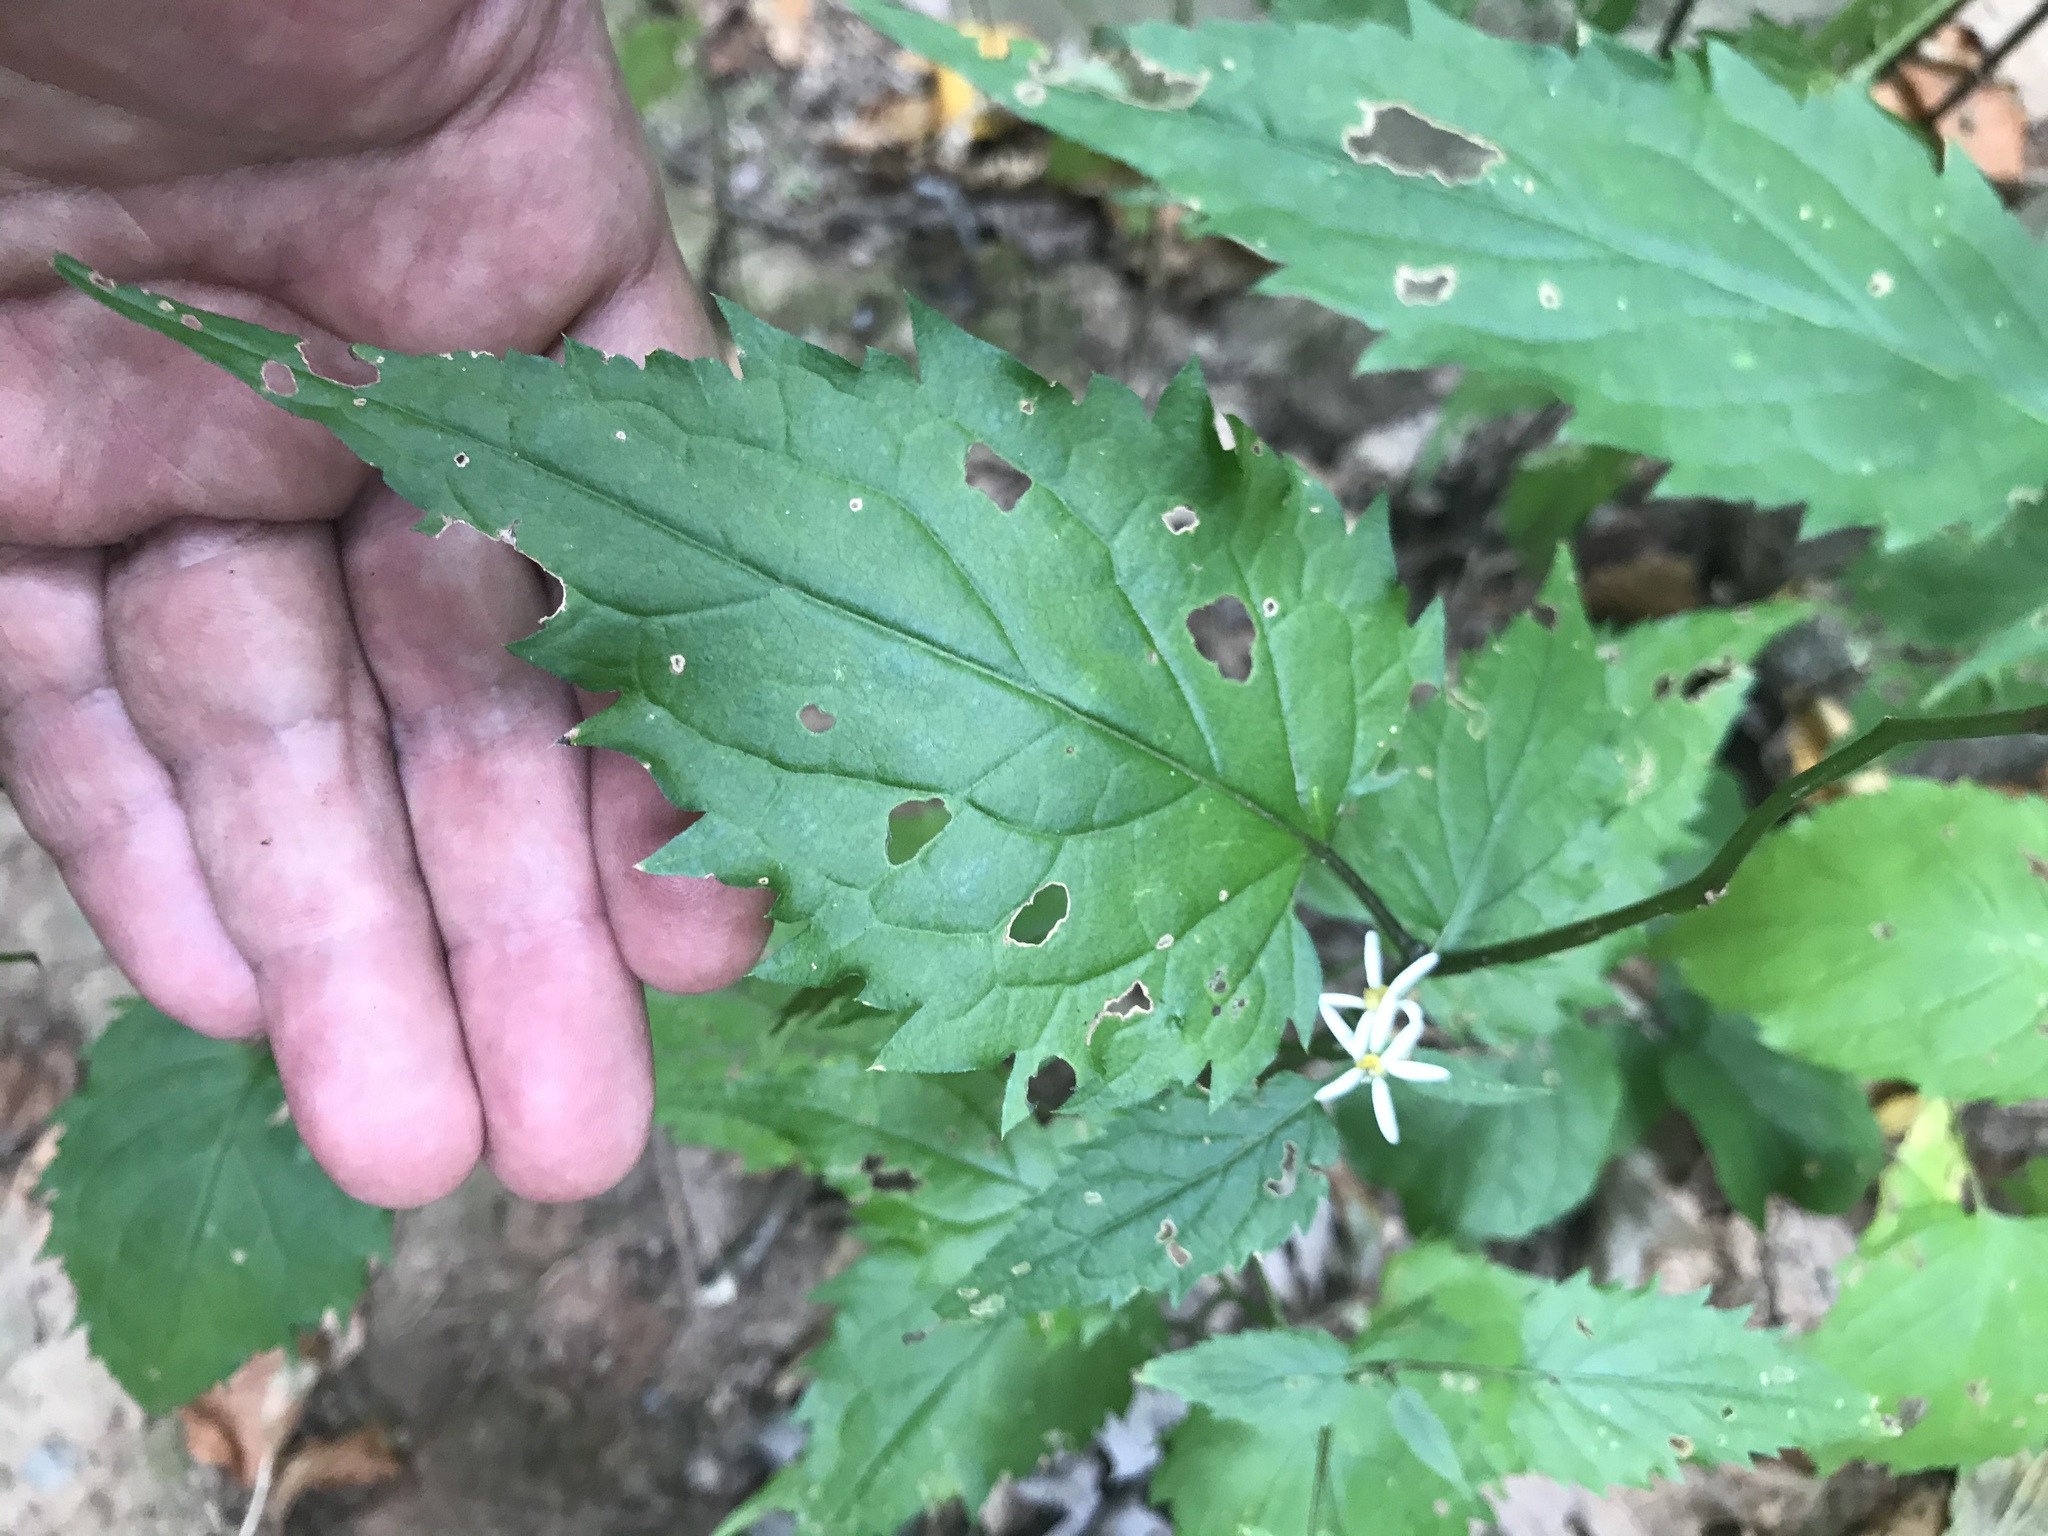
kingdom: Plantae
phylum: Tracheophyta
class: Magnoliopsida
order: Asterales
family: Asteraceae
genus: Eurybia
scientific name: Eurybia divaricata
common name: White wood aster
